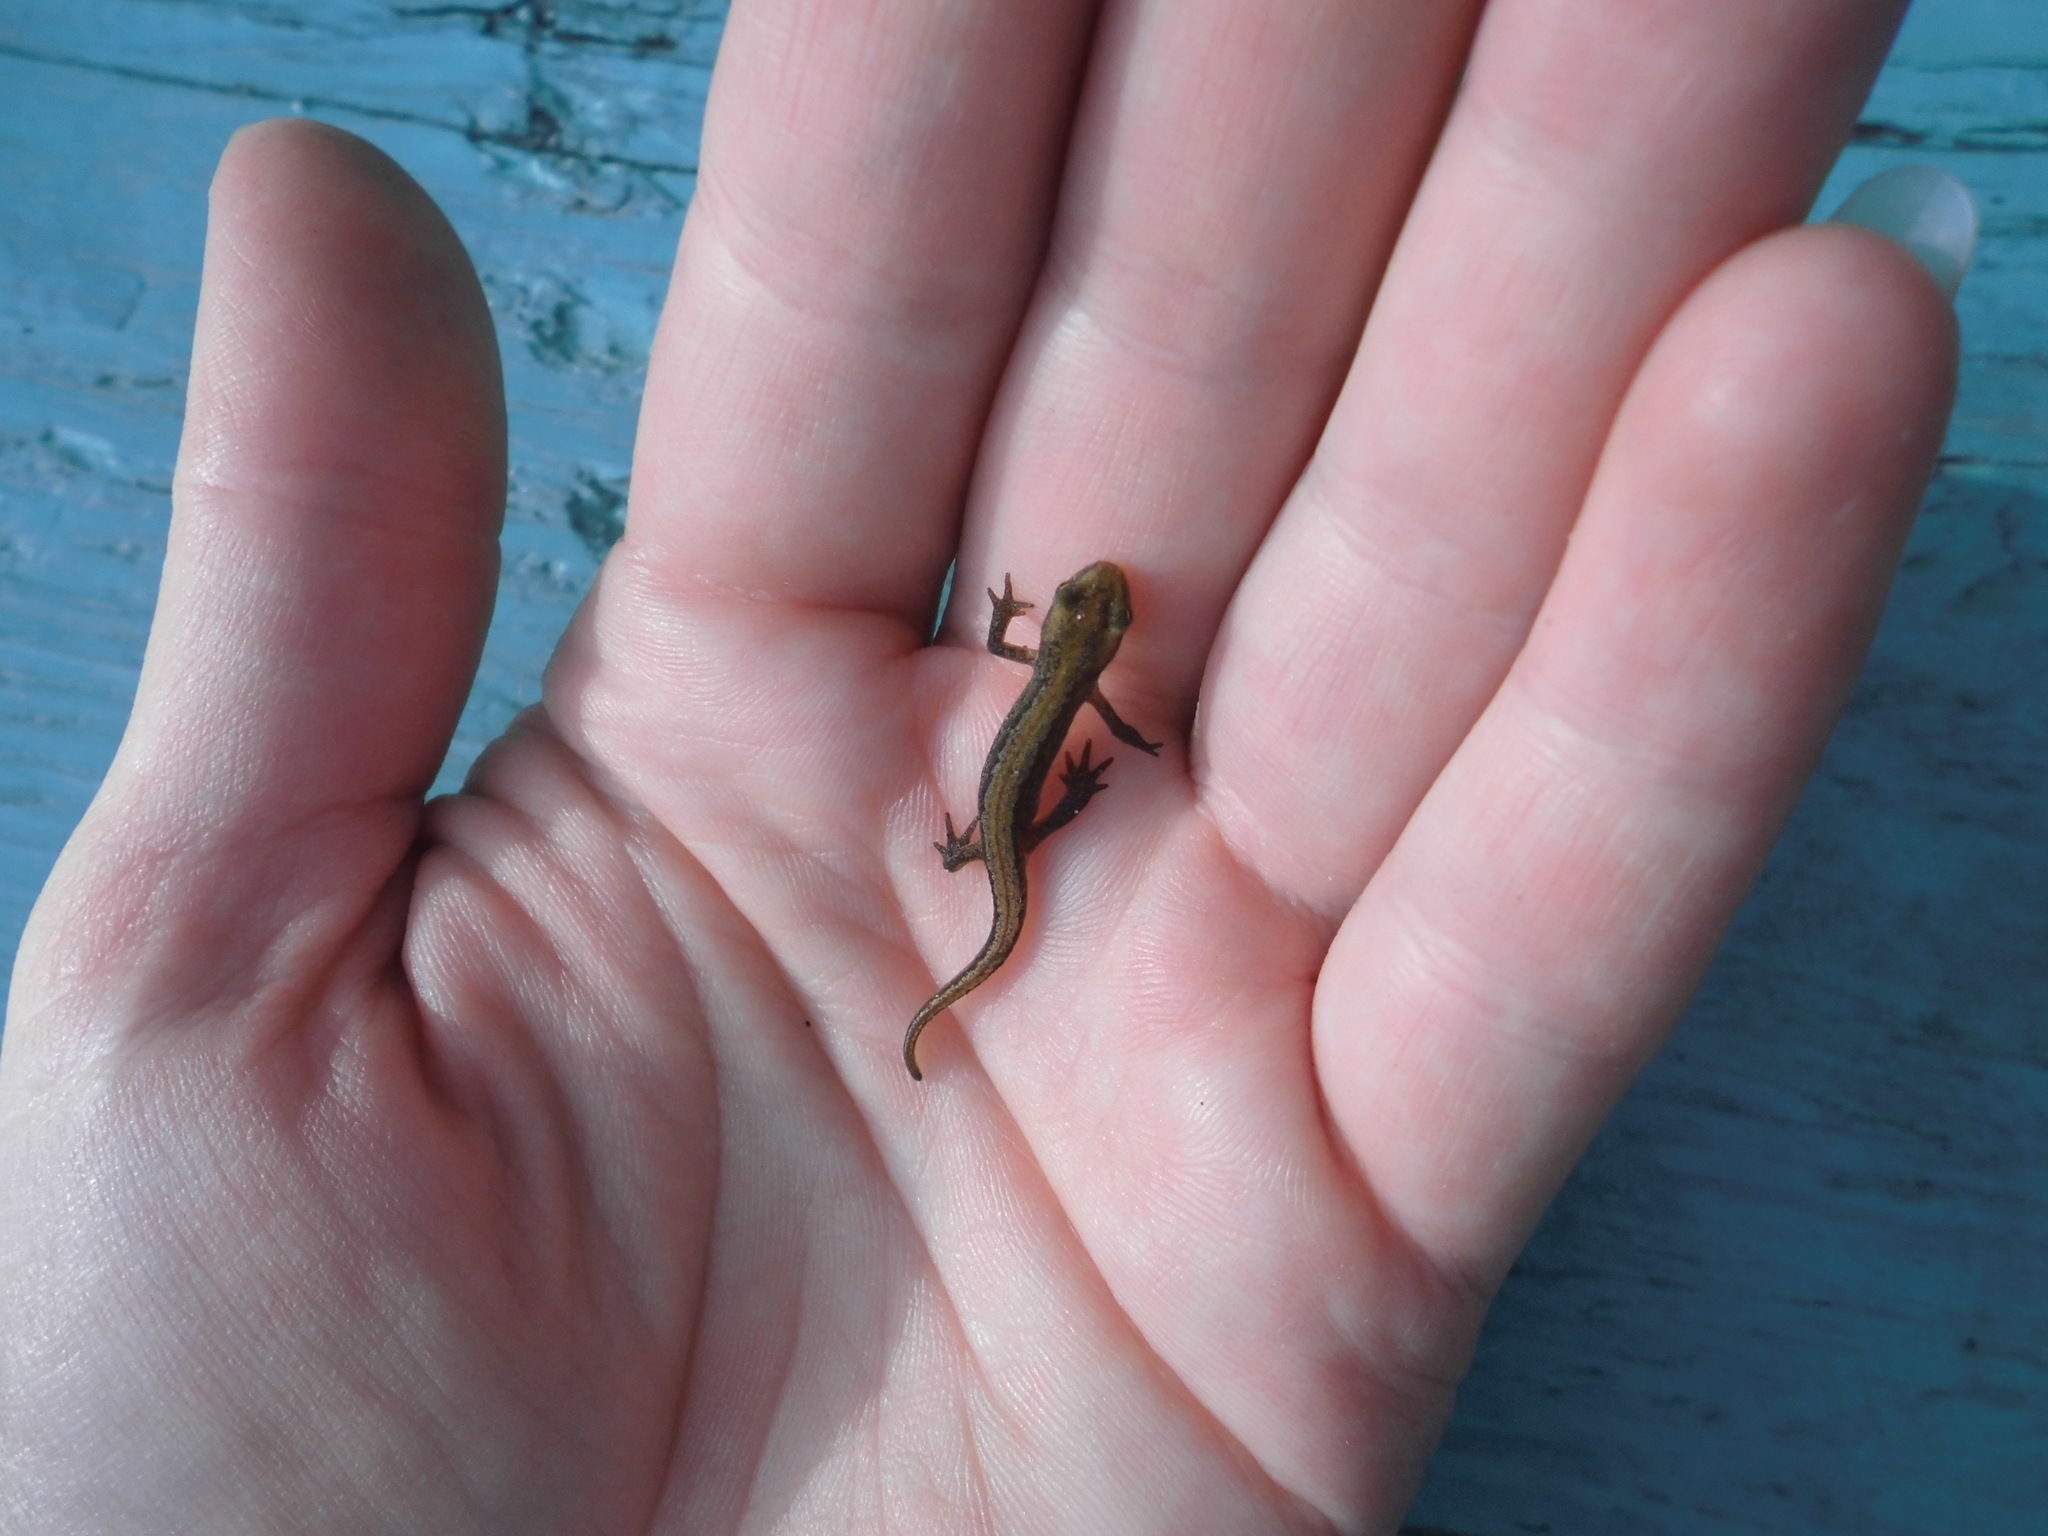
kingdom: Animalia
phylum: Chordata
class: Amphibia
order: Caudata
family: Salamandridae
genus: Lissotriton
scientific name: Lissotriton vulgaris
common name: Smooth newt
